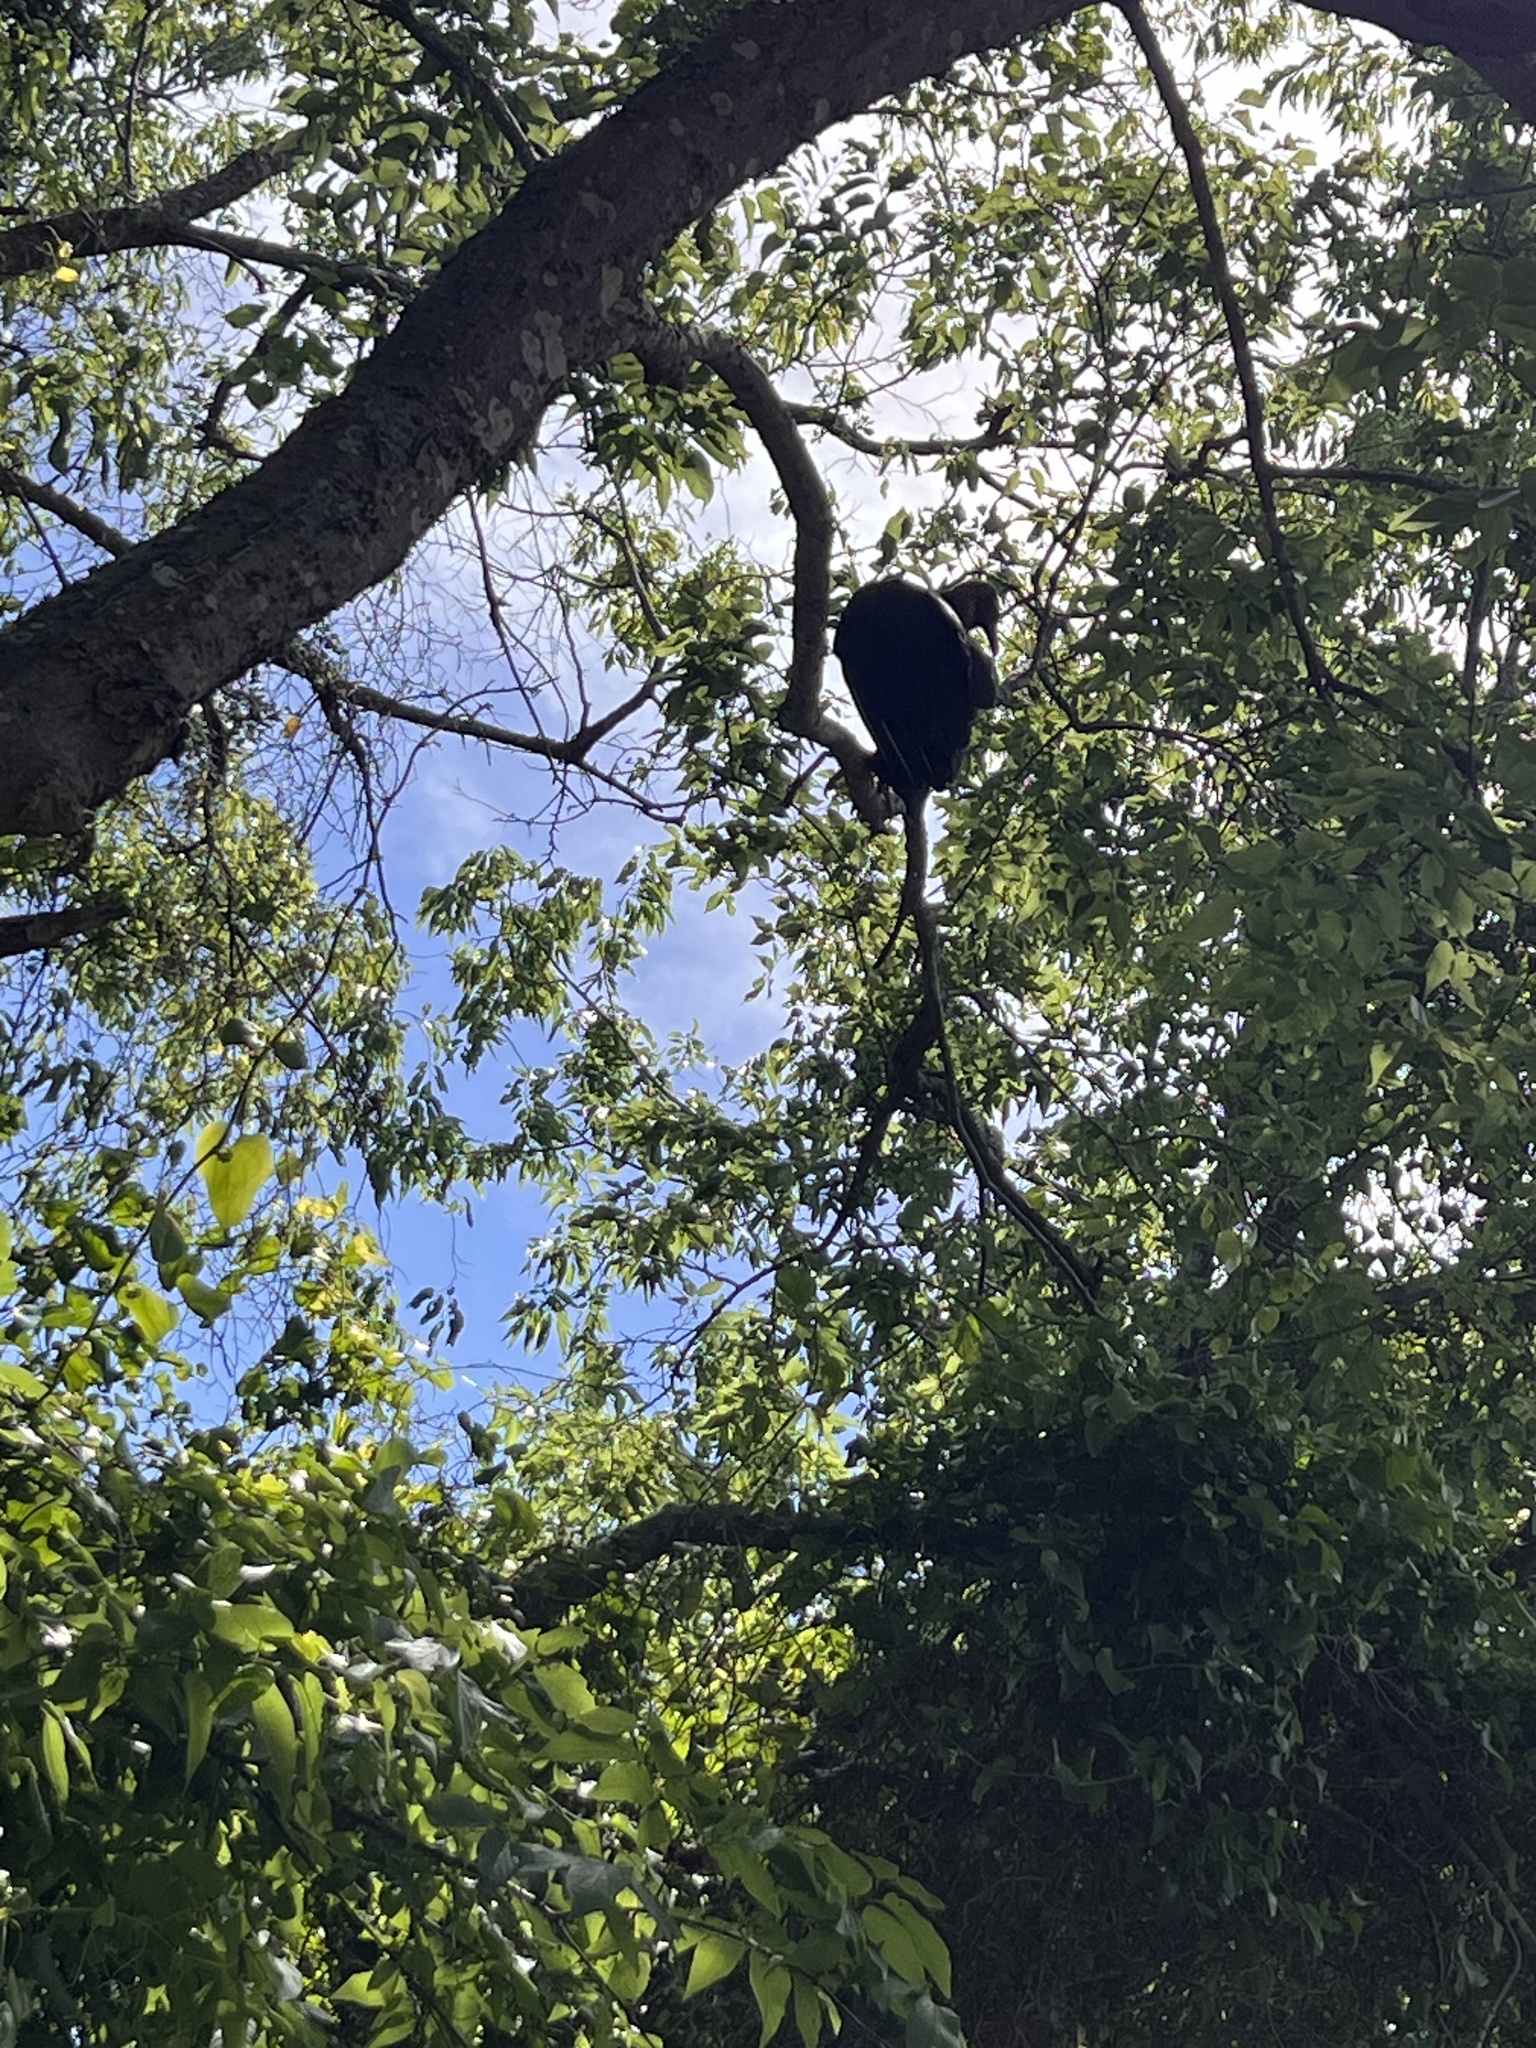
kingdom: Animalia
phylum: Chordata
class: Aves
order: Accipitriformes
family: Cathartidae
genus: Coragyps
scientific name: Coragyps atratus
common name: Black vulture
